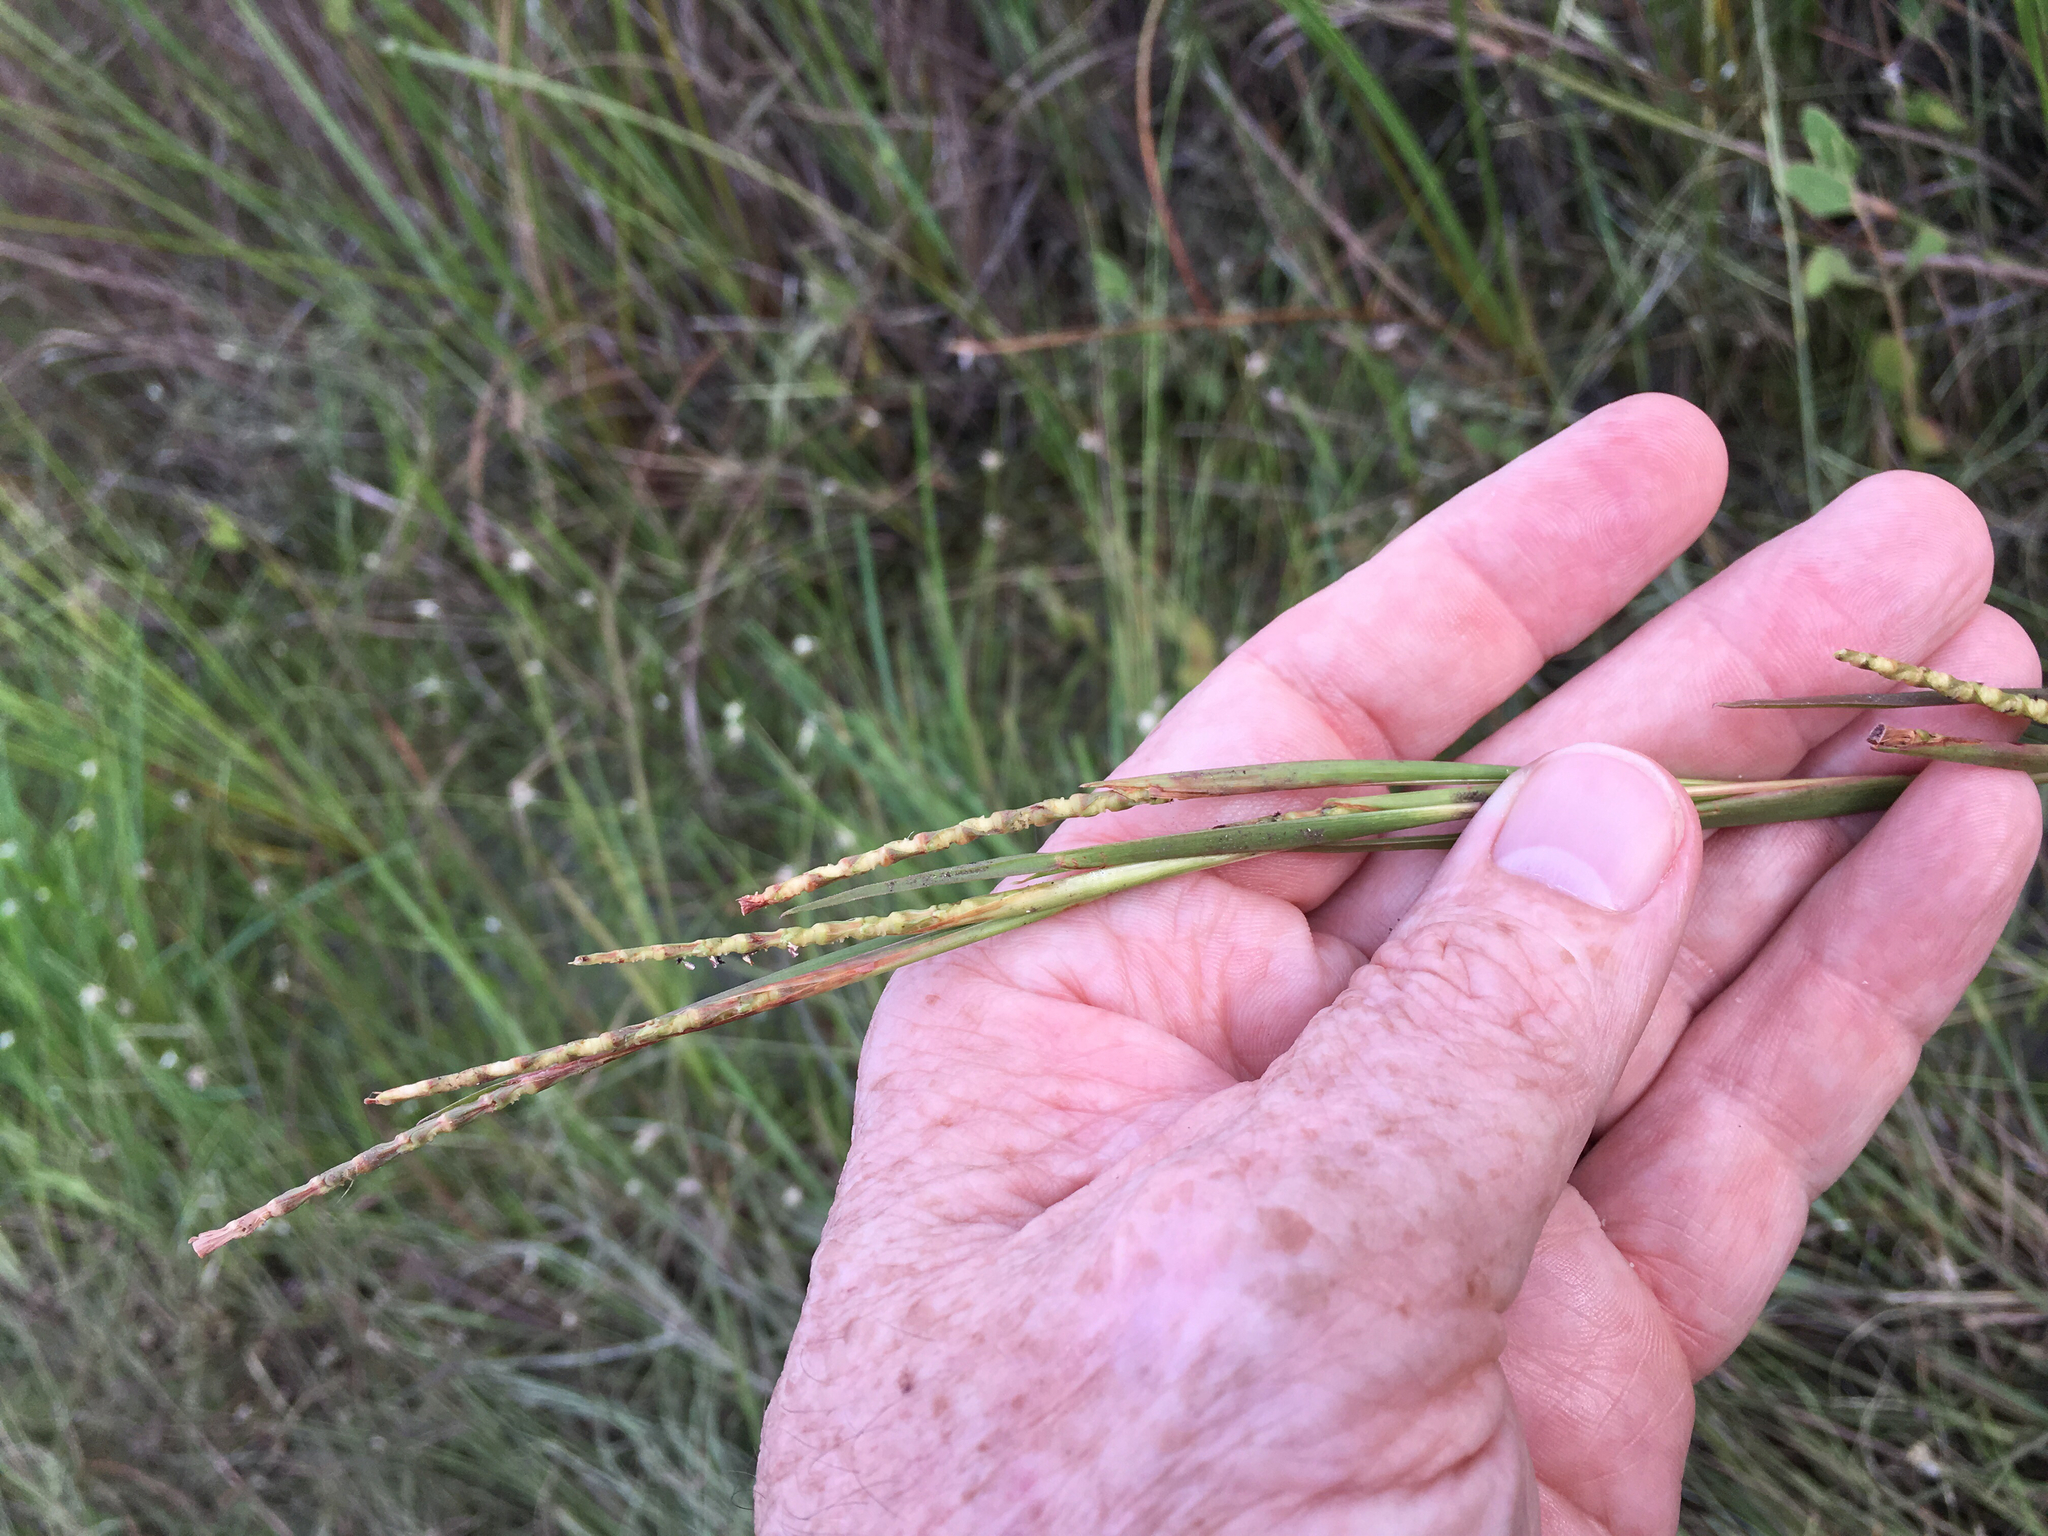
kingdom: Plantae
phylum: Tracheophyta
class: Liliopsida
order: Poales
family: Poaceae
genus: Rottboellia
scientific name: Rottboellia rugosa
